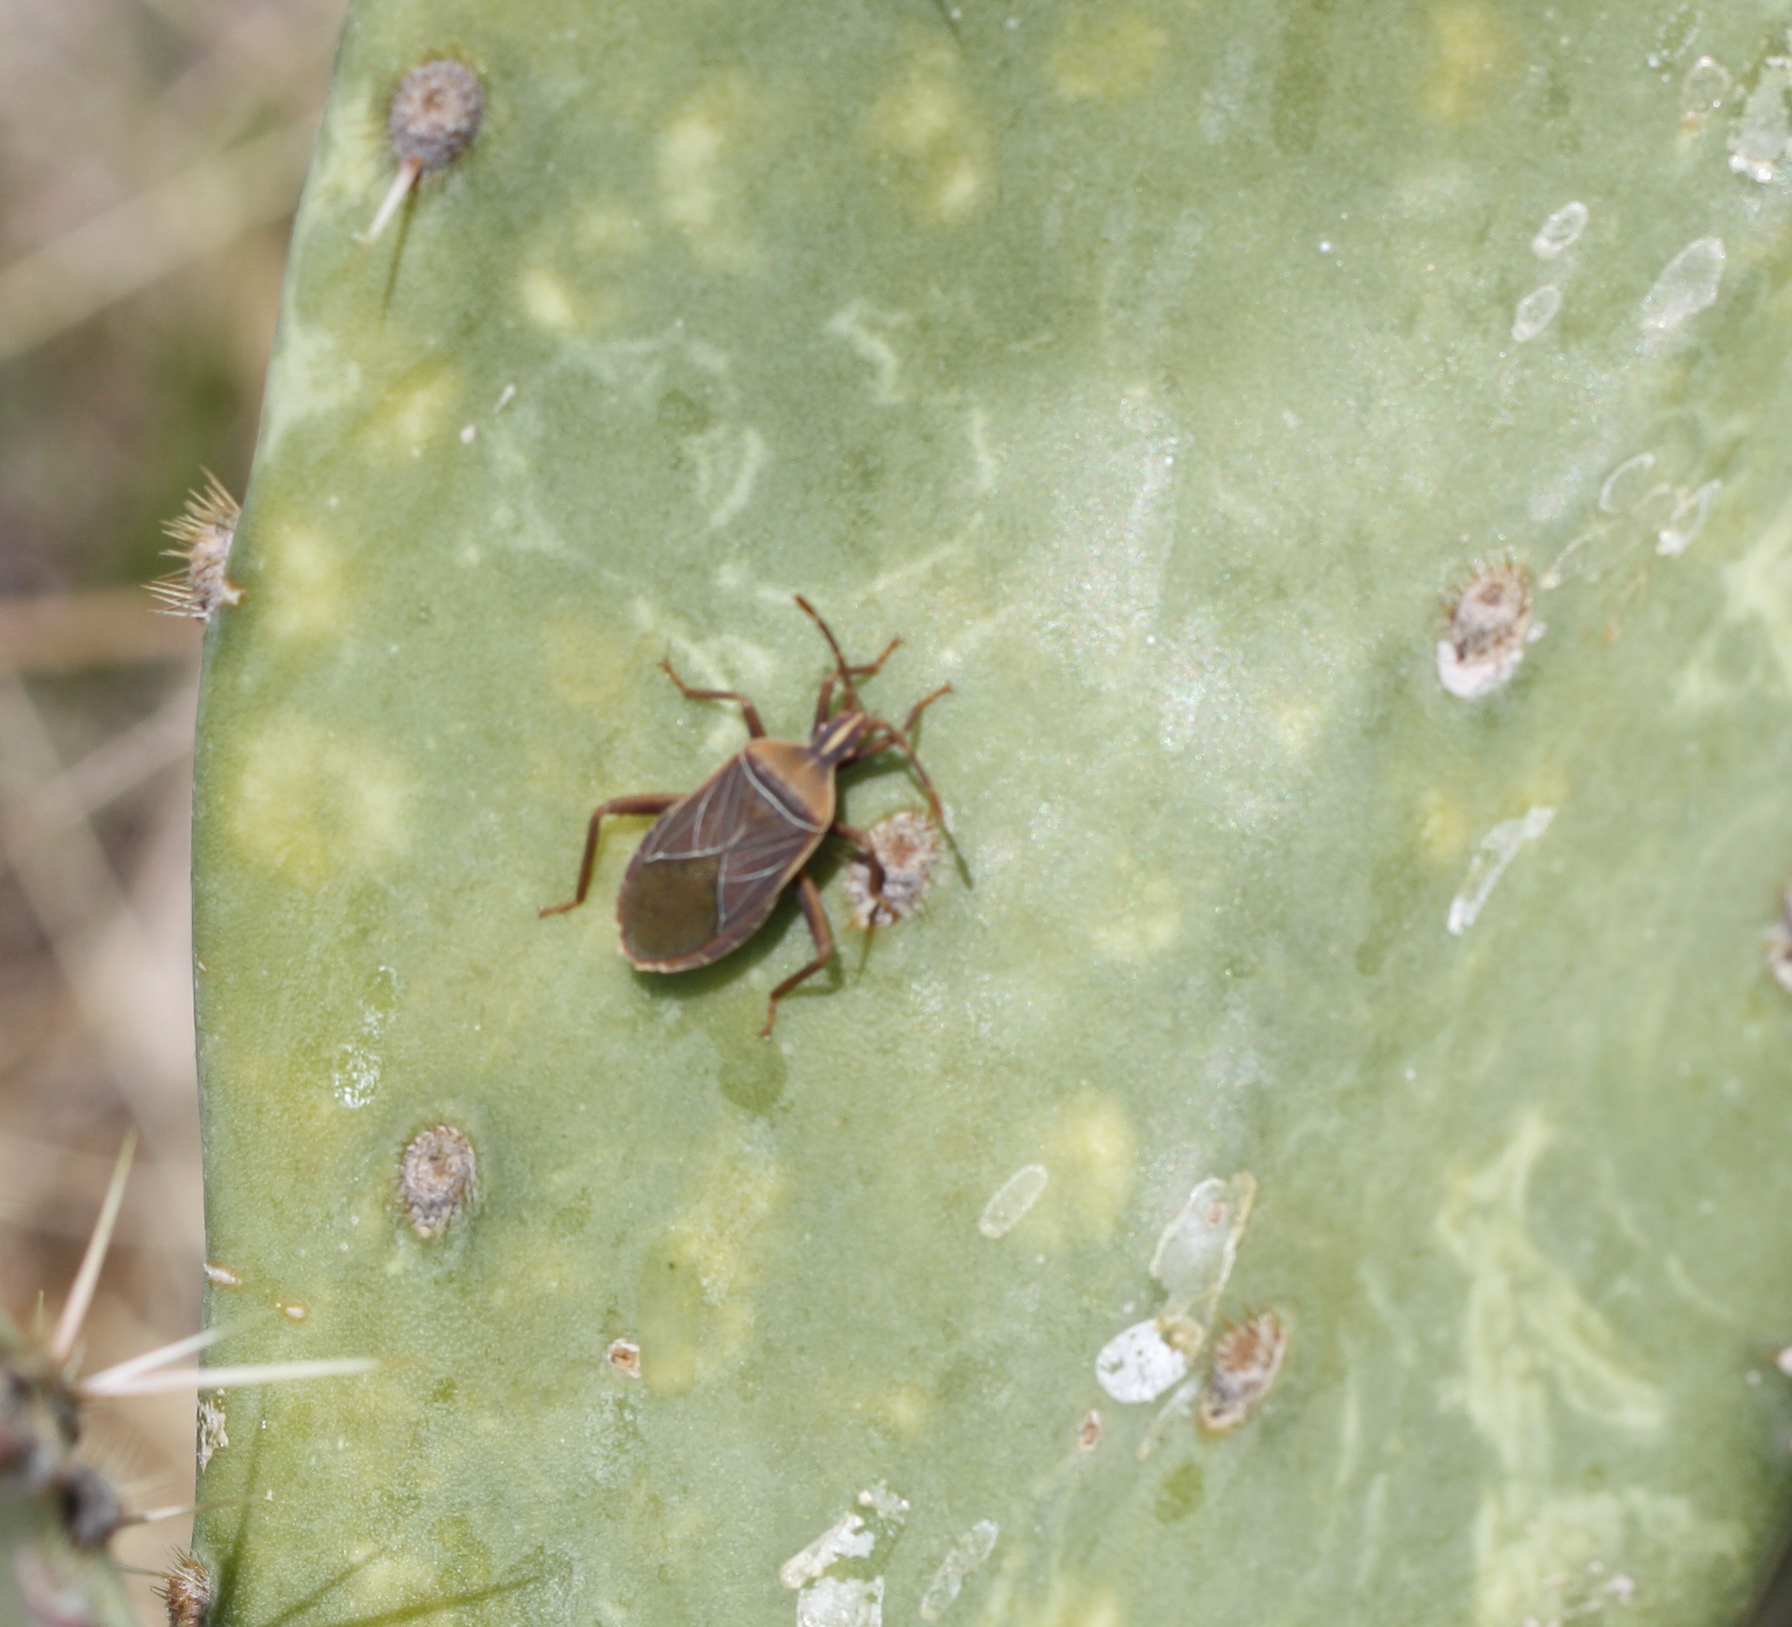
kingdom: Animalia
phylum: Arthropoda
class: Insecta
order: Hemiptera
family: Coreidae
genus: Chelinidea
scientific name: Chelinidea vittiger
